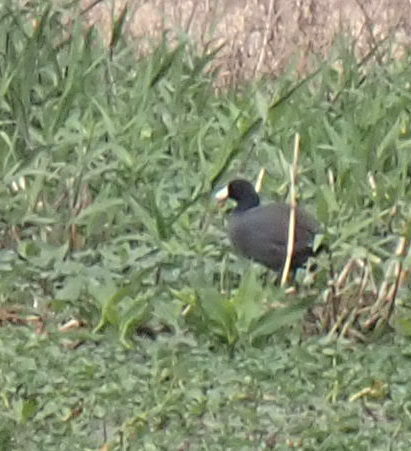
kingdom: Animalia
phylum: Chordata
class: Aves
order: Gruiformes
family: Rallidae
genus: Fulica
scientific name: Fulica americana
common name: American coot
